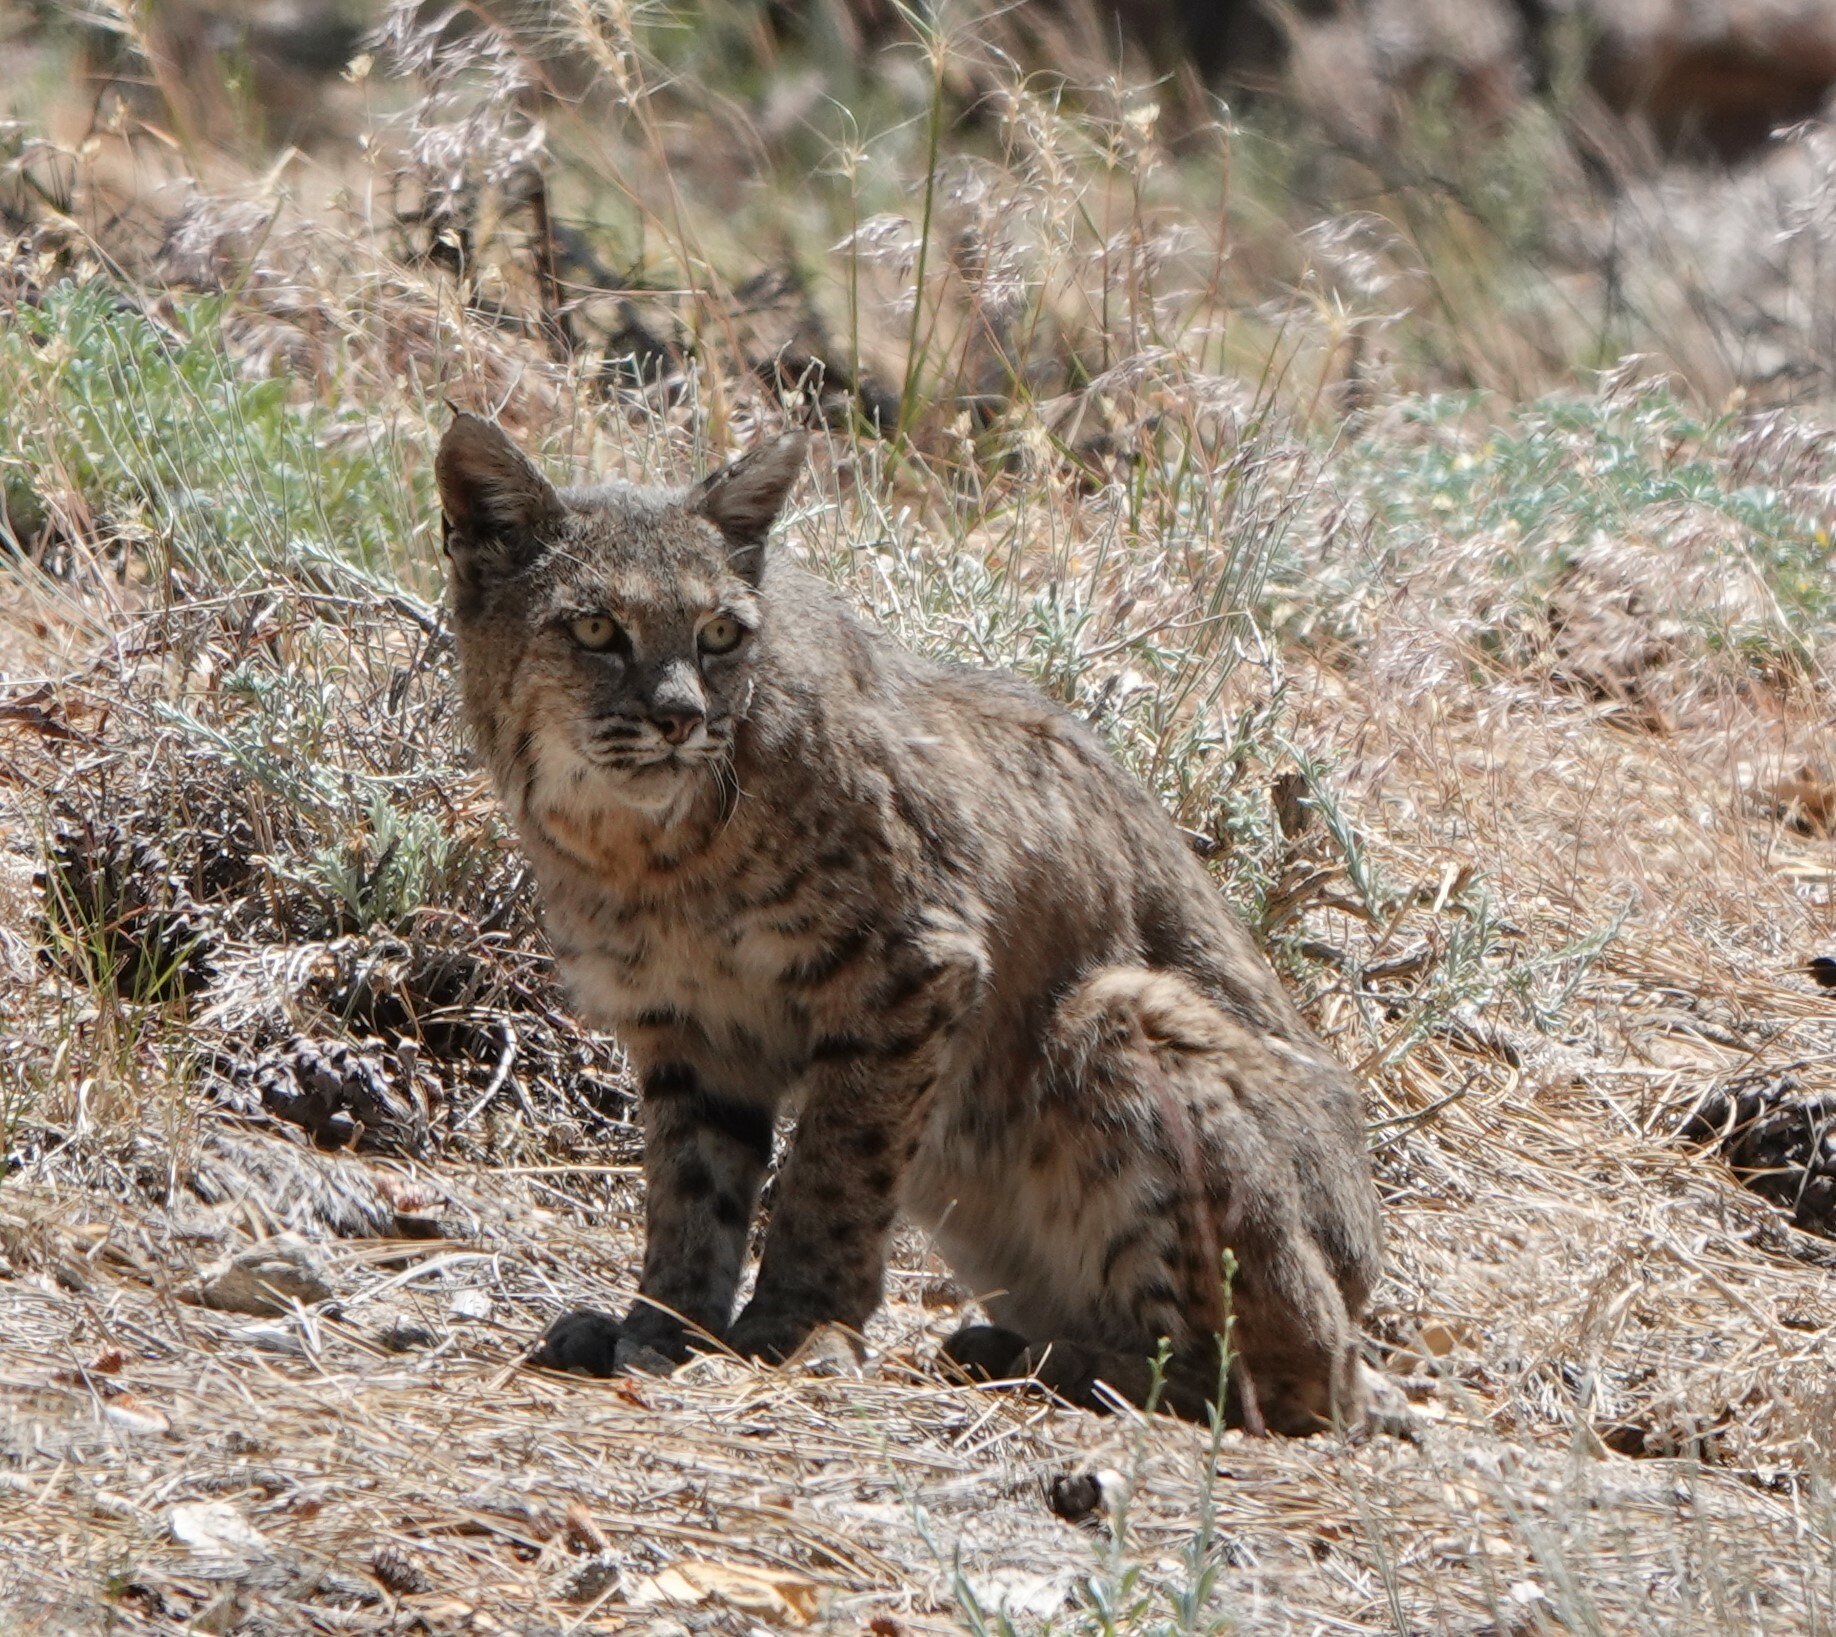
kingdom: Animalia
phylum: Chordata
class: Mammalia
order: Carnivora
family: Felidae
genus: Lynx
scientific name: Lynx rufus
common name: Bobcat
